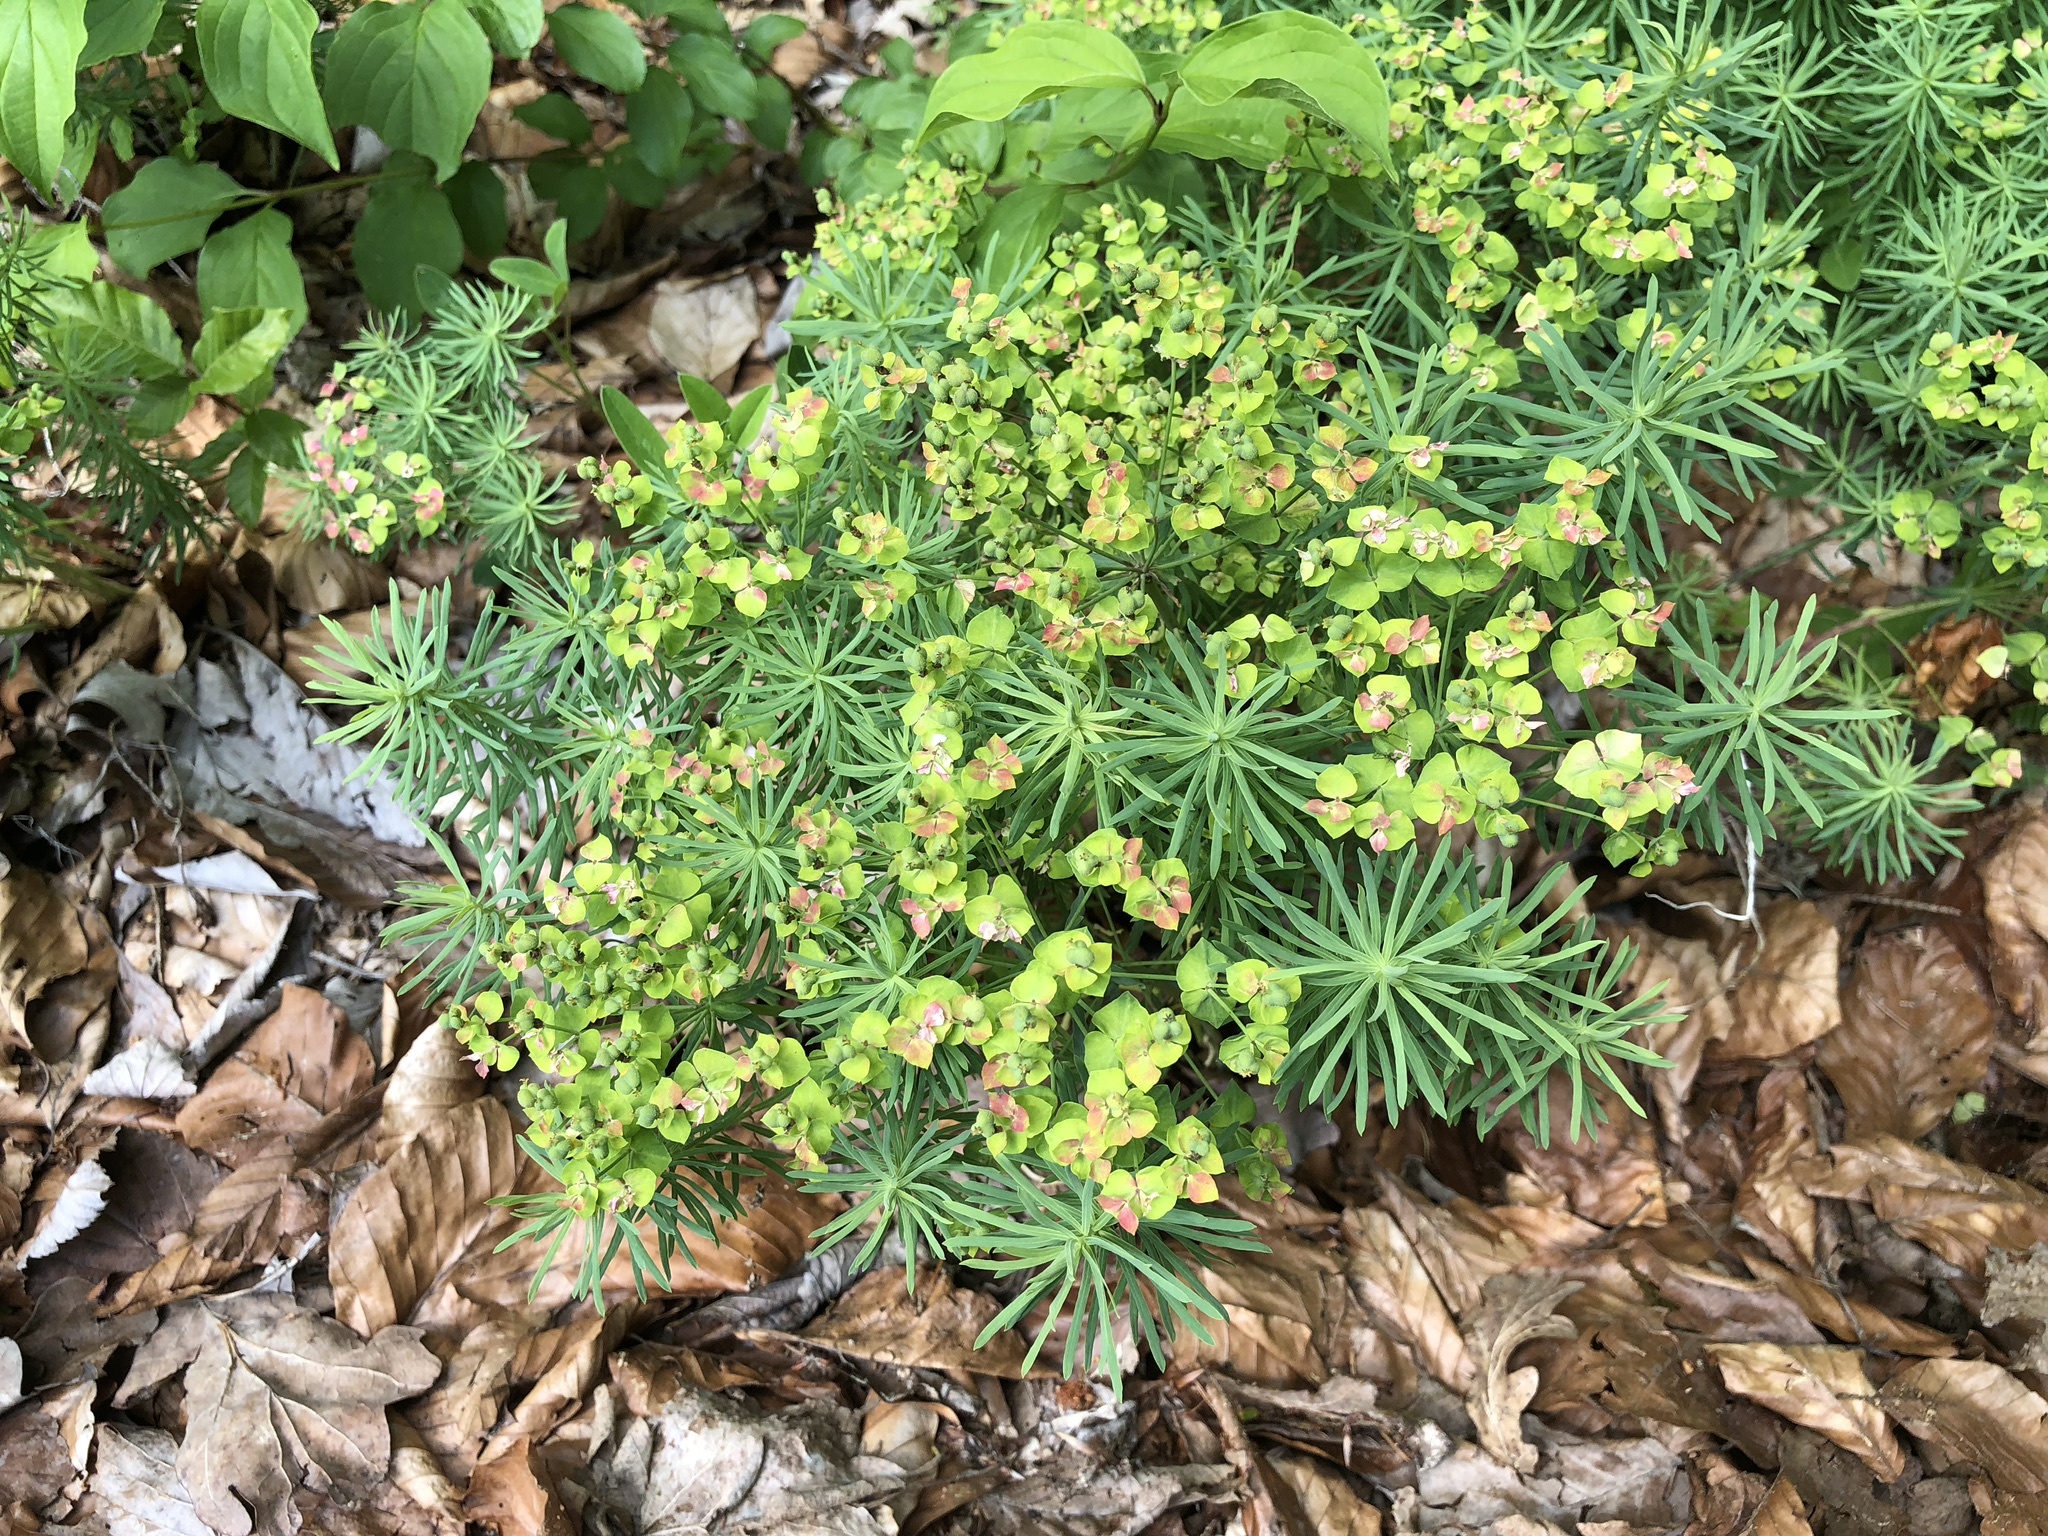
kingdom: Plantae
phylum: Tracheophyta
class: Magnoliopsida
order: Malpighiales
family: Euphorbiaceae
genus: Euphorbia
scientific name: Euphorbia cyparissias
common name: Cypress spurge
